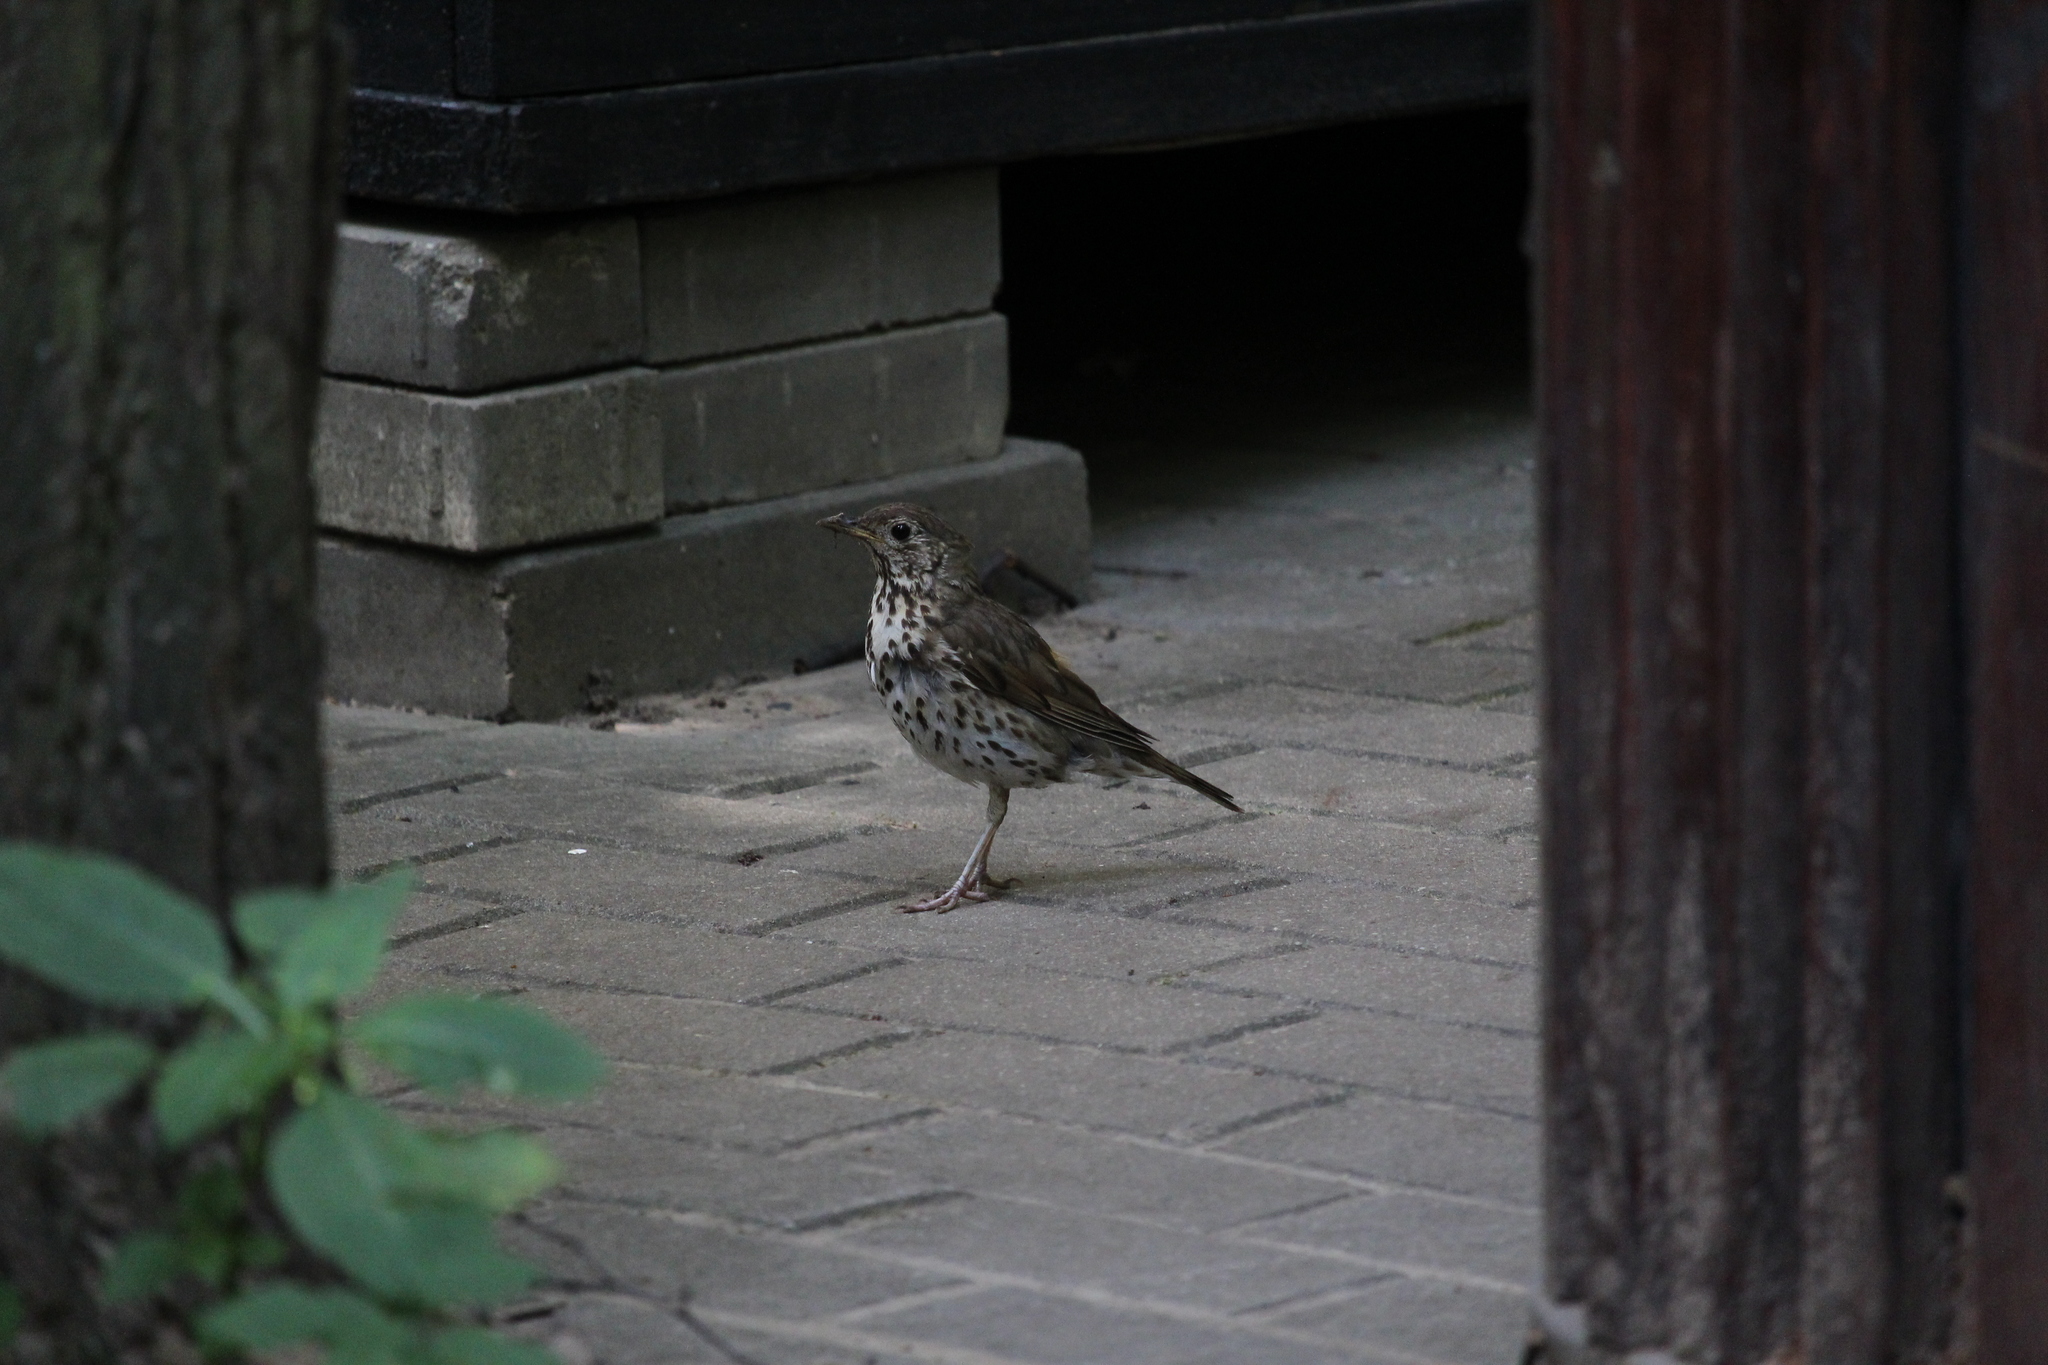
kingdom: Animalia
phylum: Chordata
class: Aves
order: Passeriformes
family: Turdidae
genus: Turdus
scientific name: Turdus philomelos
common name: Song thrush
